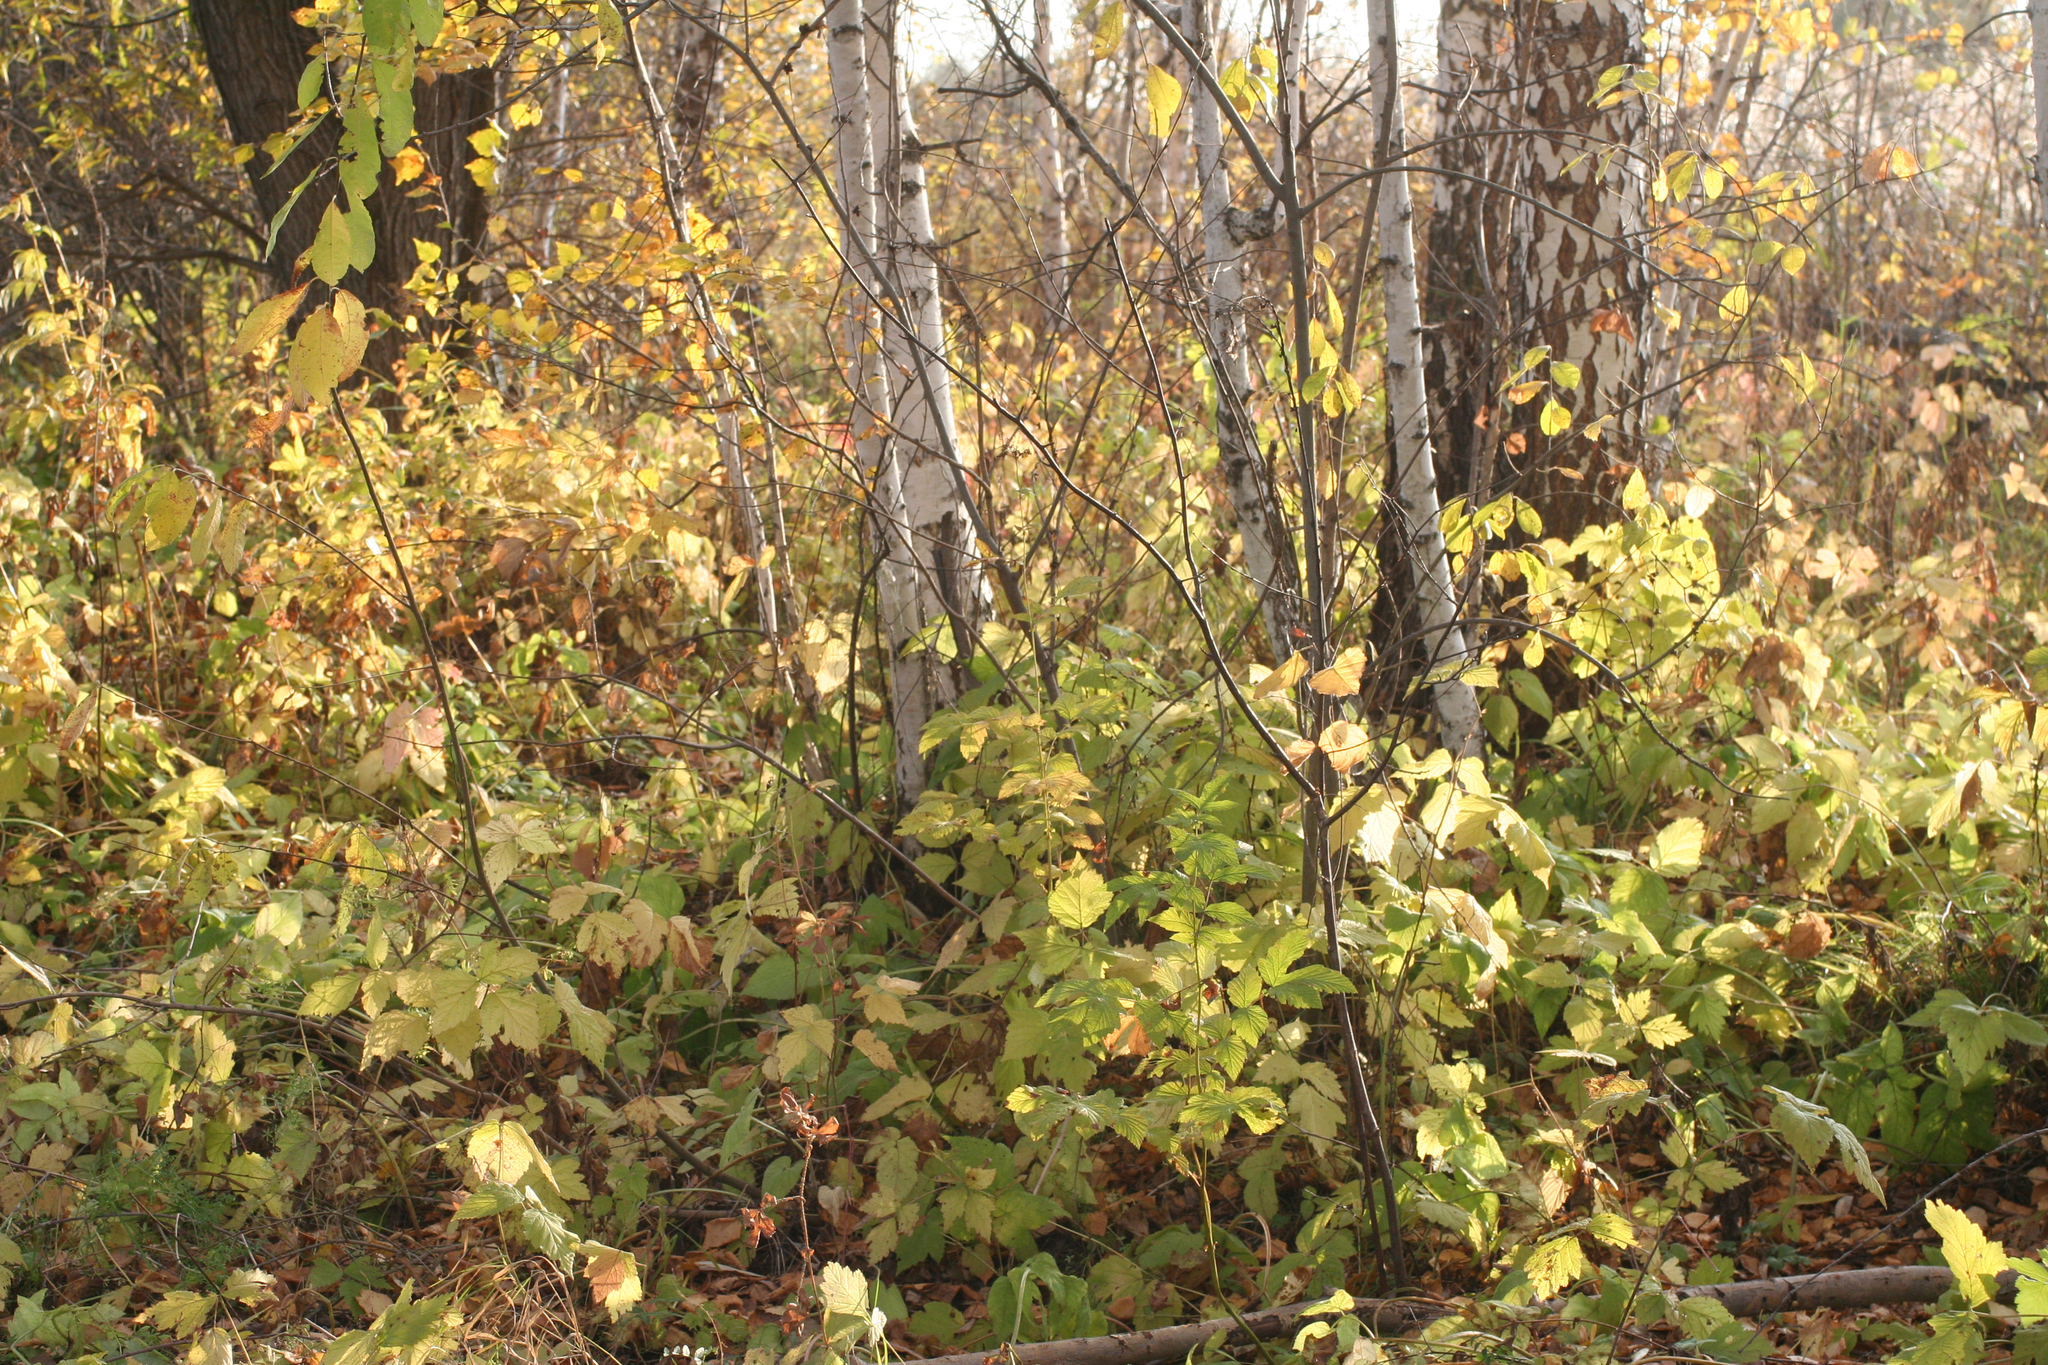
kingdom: Plantae
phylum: Tracheophyta
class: Magnoliopsida
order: Rosales
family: Rosaceae
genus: Rubus
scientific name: Rubus caesius
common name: Dewberry
